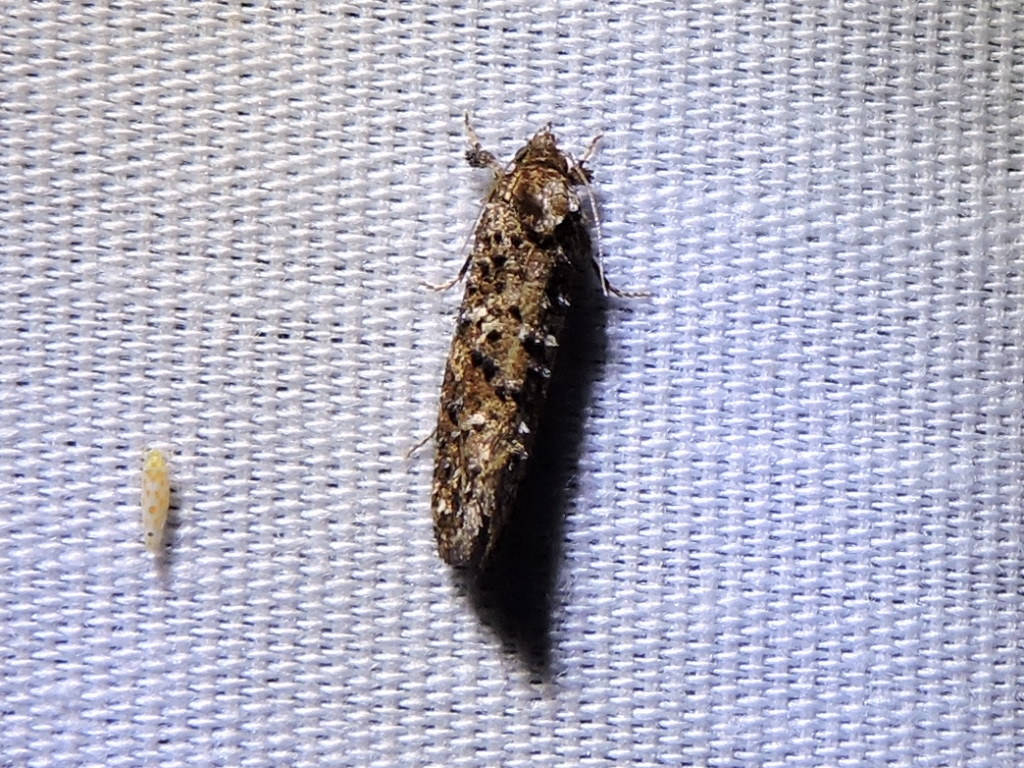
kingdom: Animalia
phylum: Arthropoda
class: Insecta
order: Lepidoptera
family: Tineidae
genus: Acrolophus
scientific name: Acrolophus cressoni
